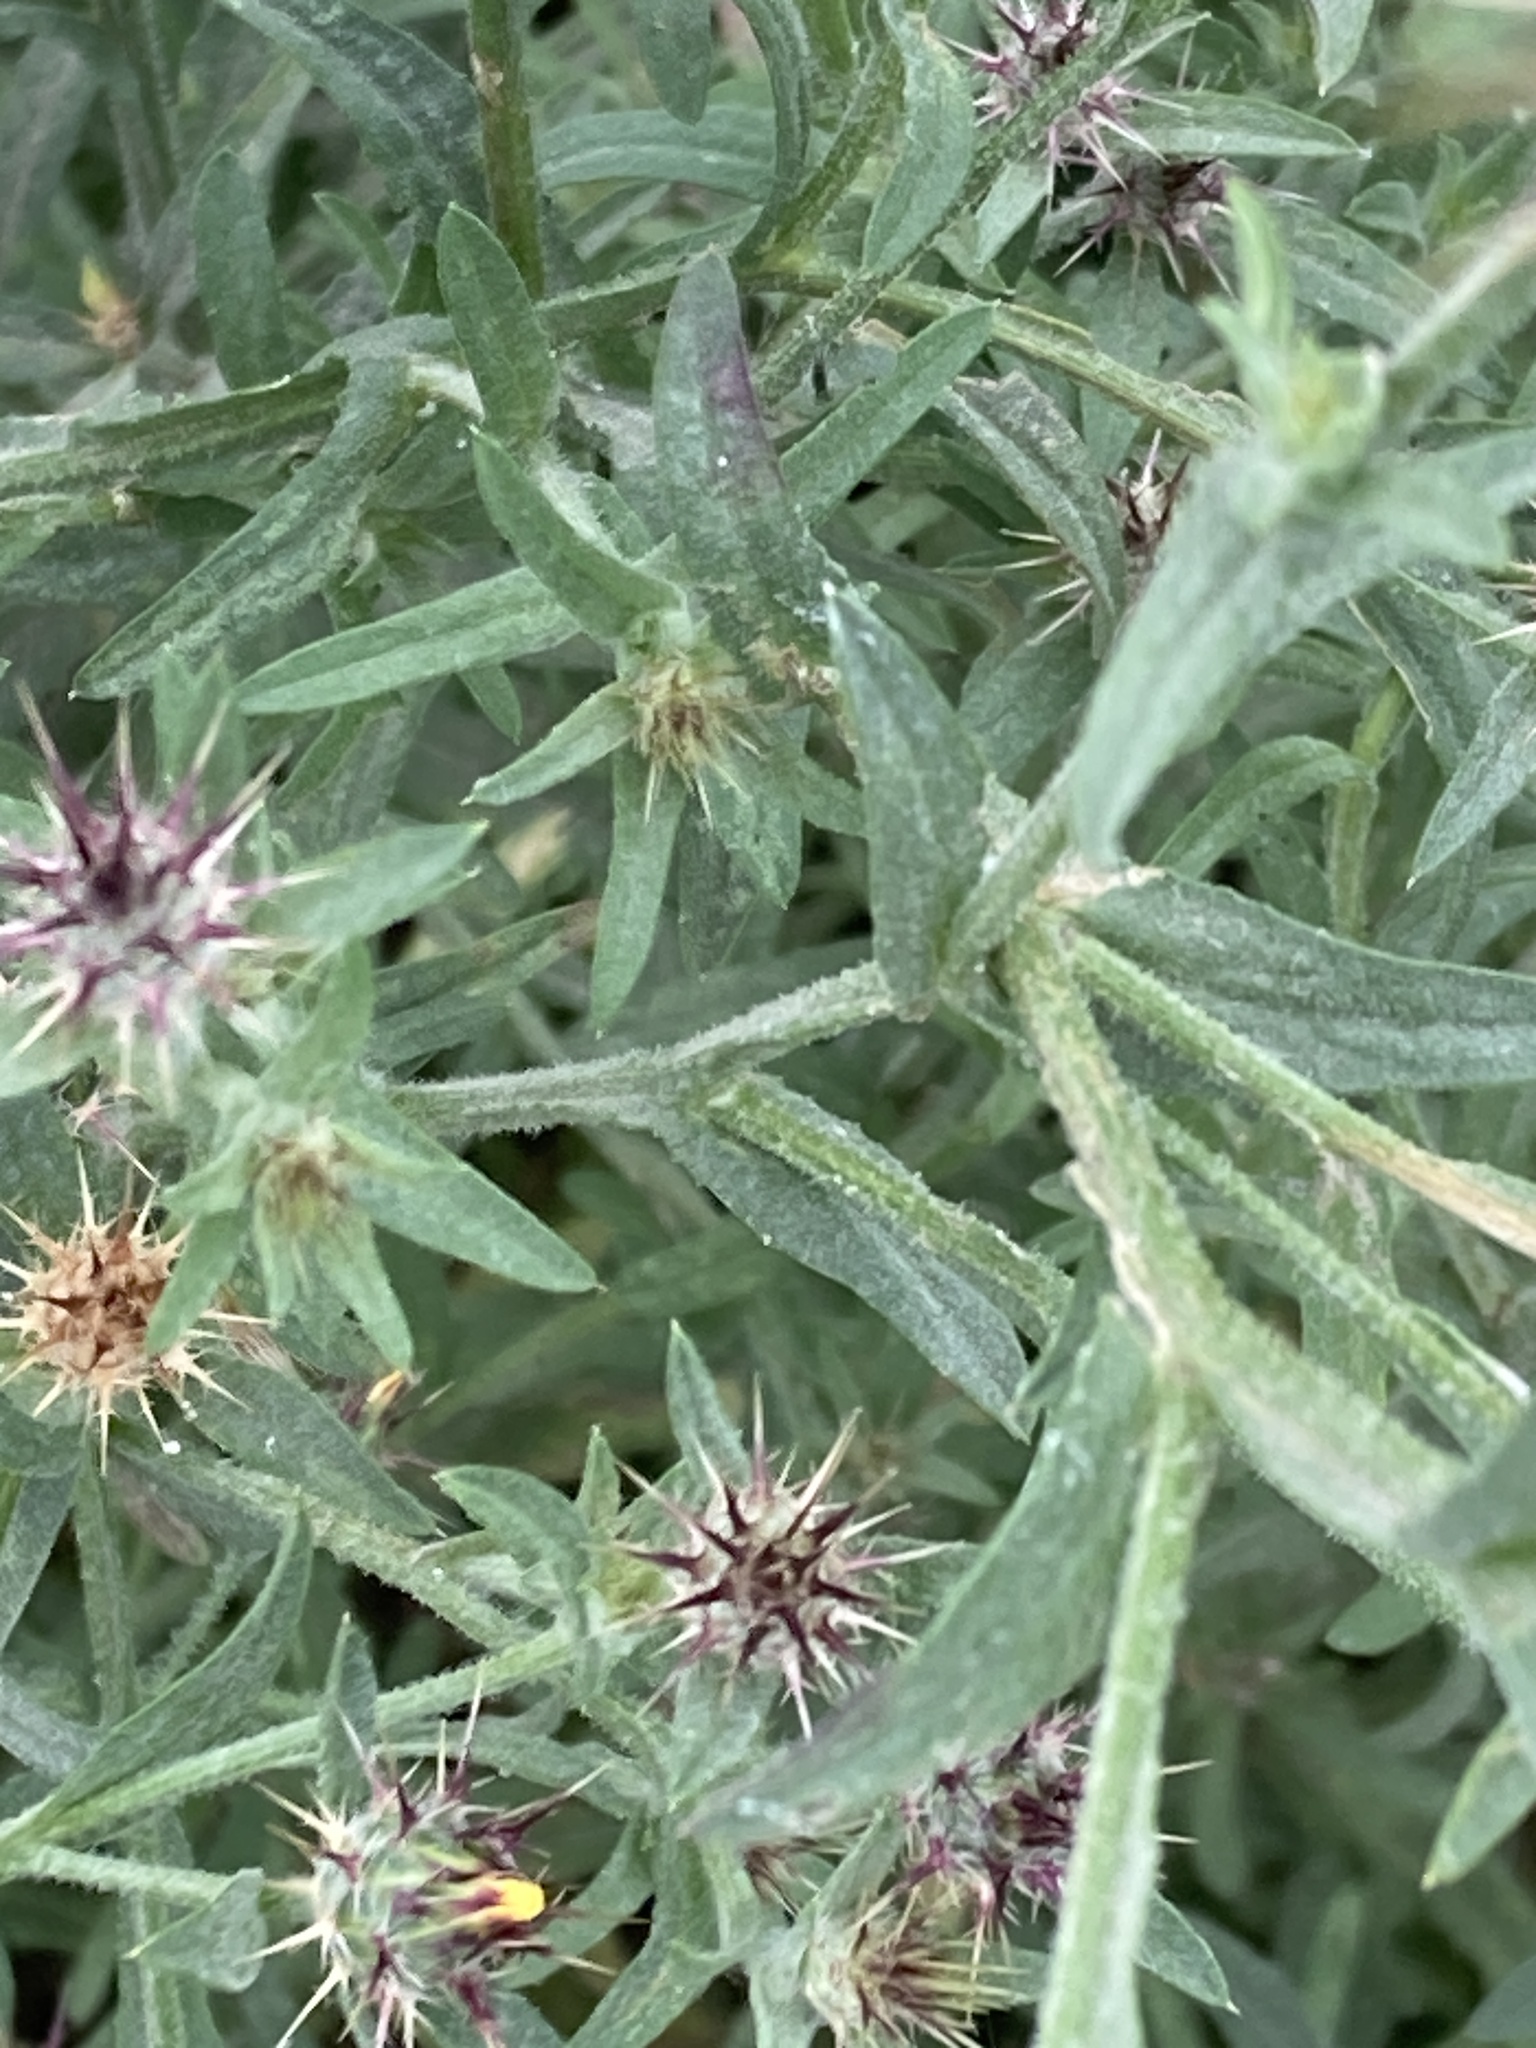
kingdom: Plantae
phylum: Tracheophyta
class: Magnoliopsida
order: Asterales
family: Asteraceae
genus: Centaurea
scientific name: Centaurea melitensis
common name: Maltese star-thistle
